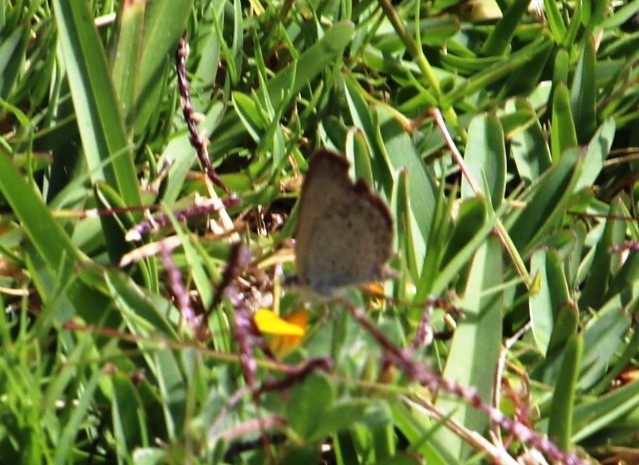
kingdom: Animalia
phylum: Arthropoda
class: Insecta
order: Lepidoptera
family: Lycaenidae
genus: Zizeeria
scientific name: Zizeeria knysna
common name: African grass blue
